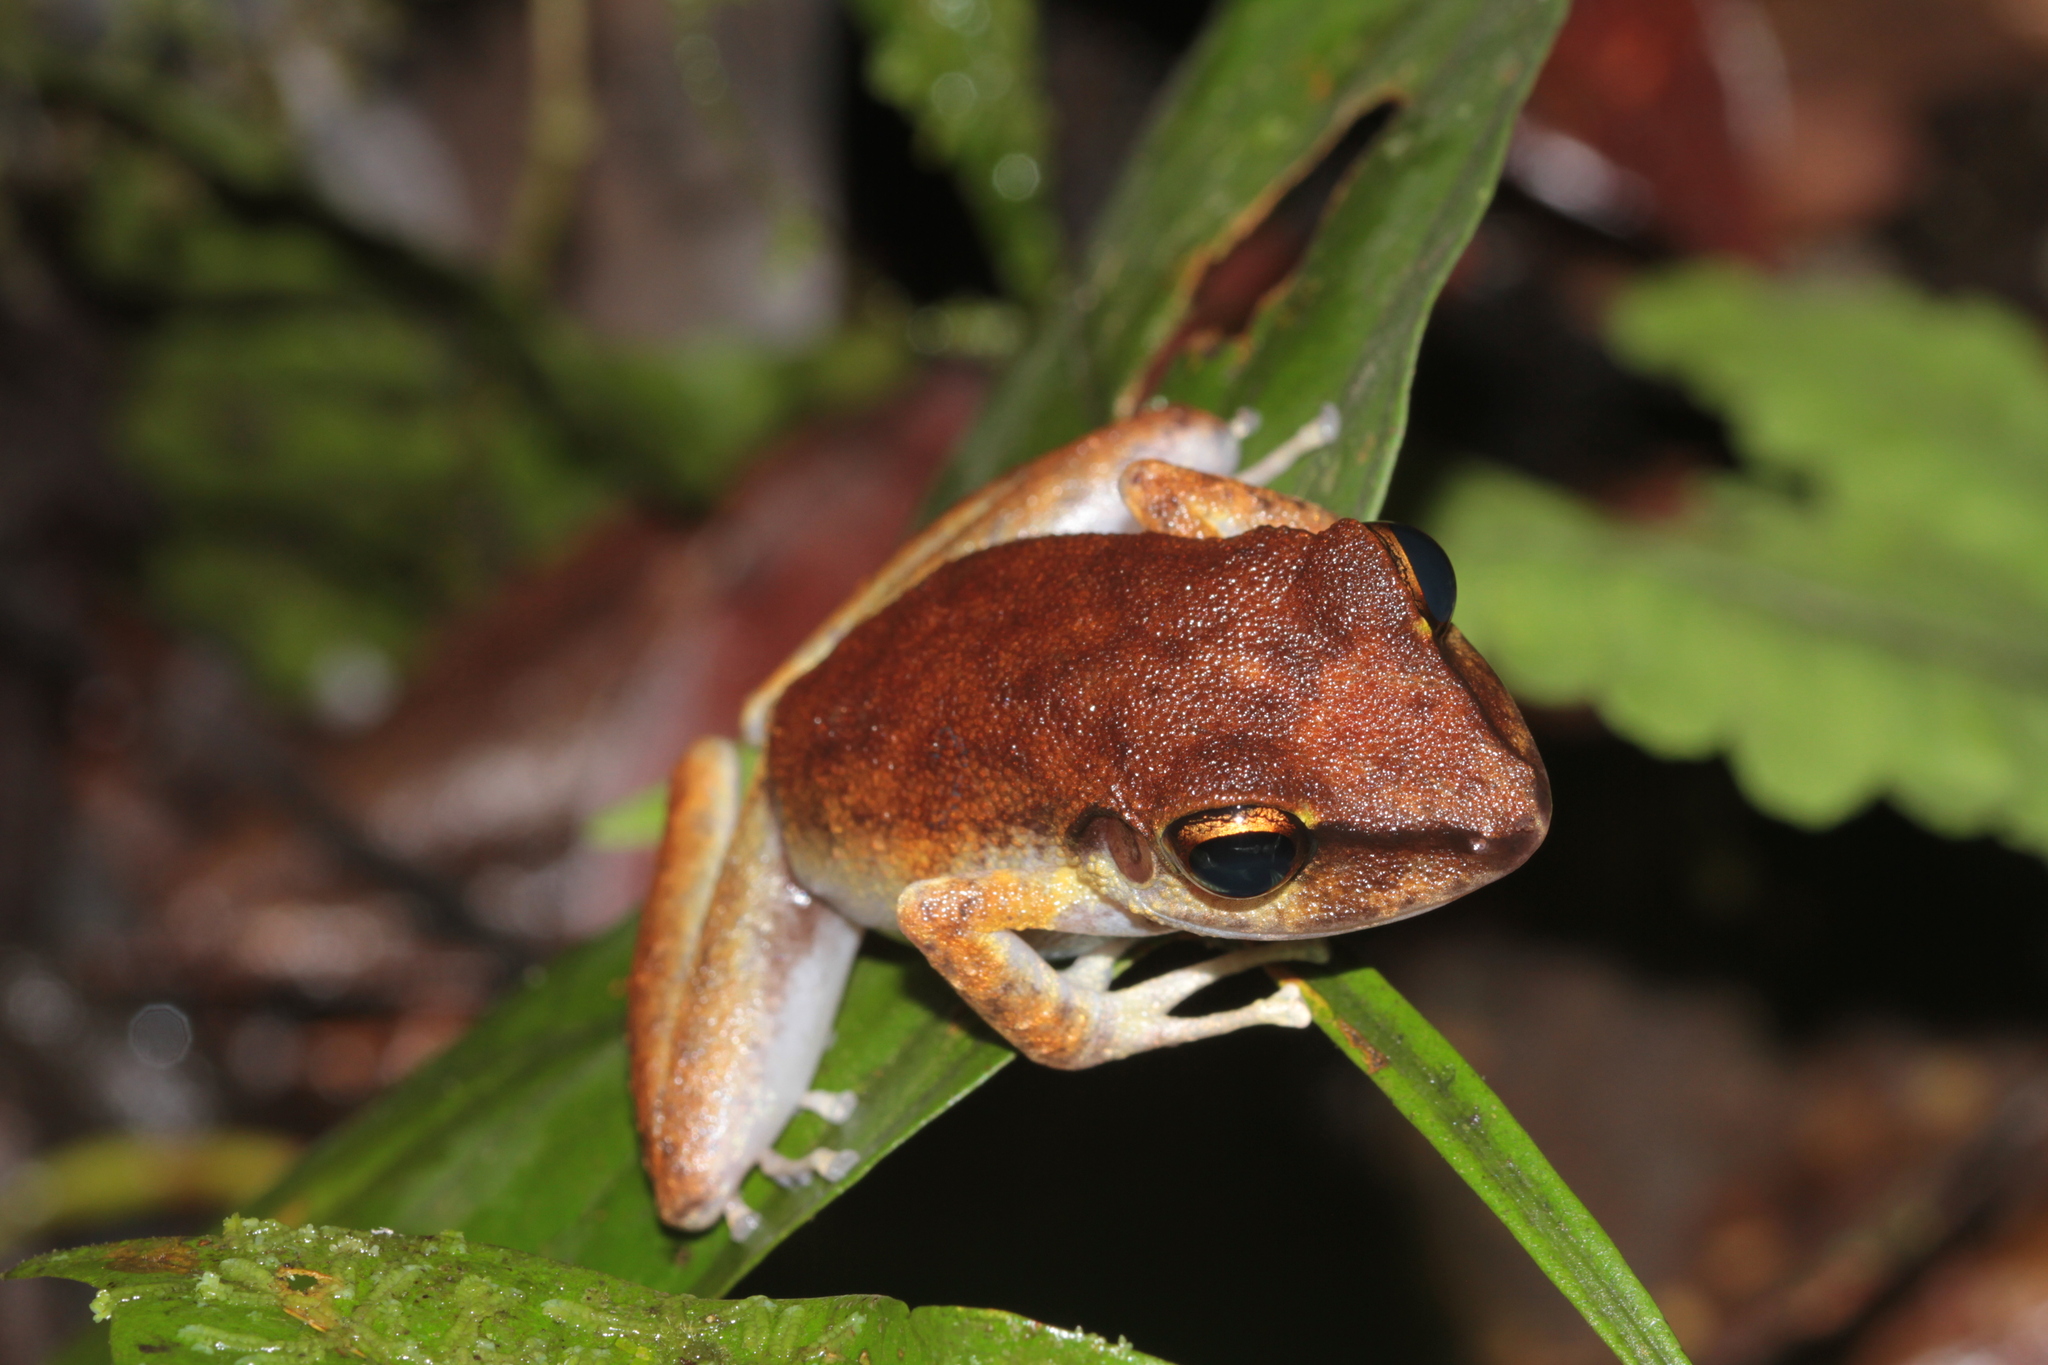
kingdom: Animalia
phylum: Chordata
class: Amphibia
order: Anura
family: Craugastoridae
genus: Pristimantis
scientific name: Pristimantis zeuctotylus
